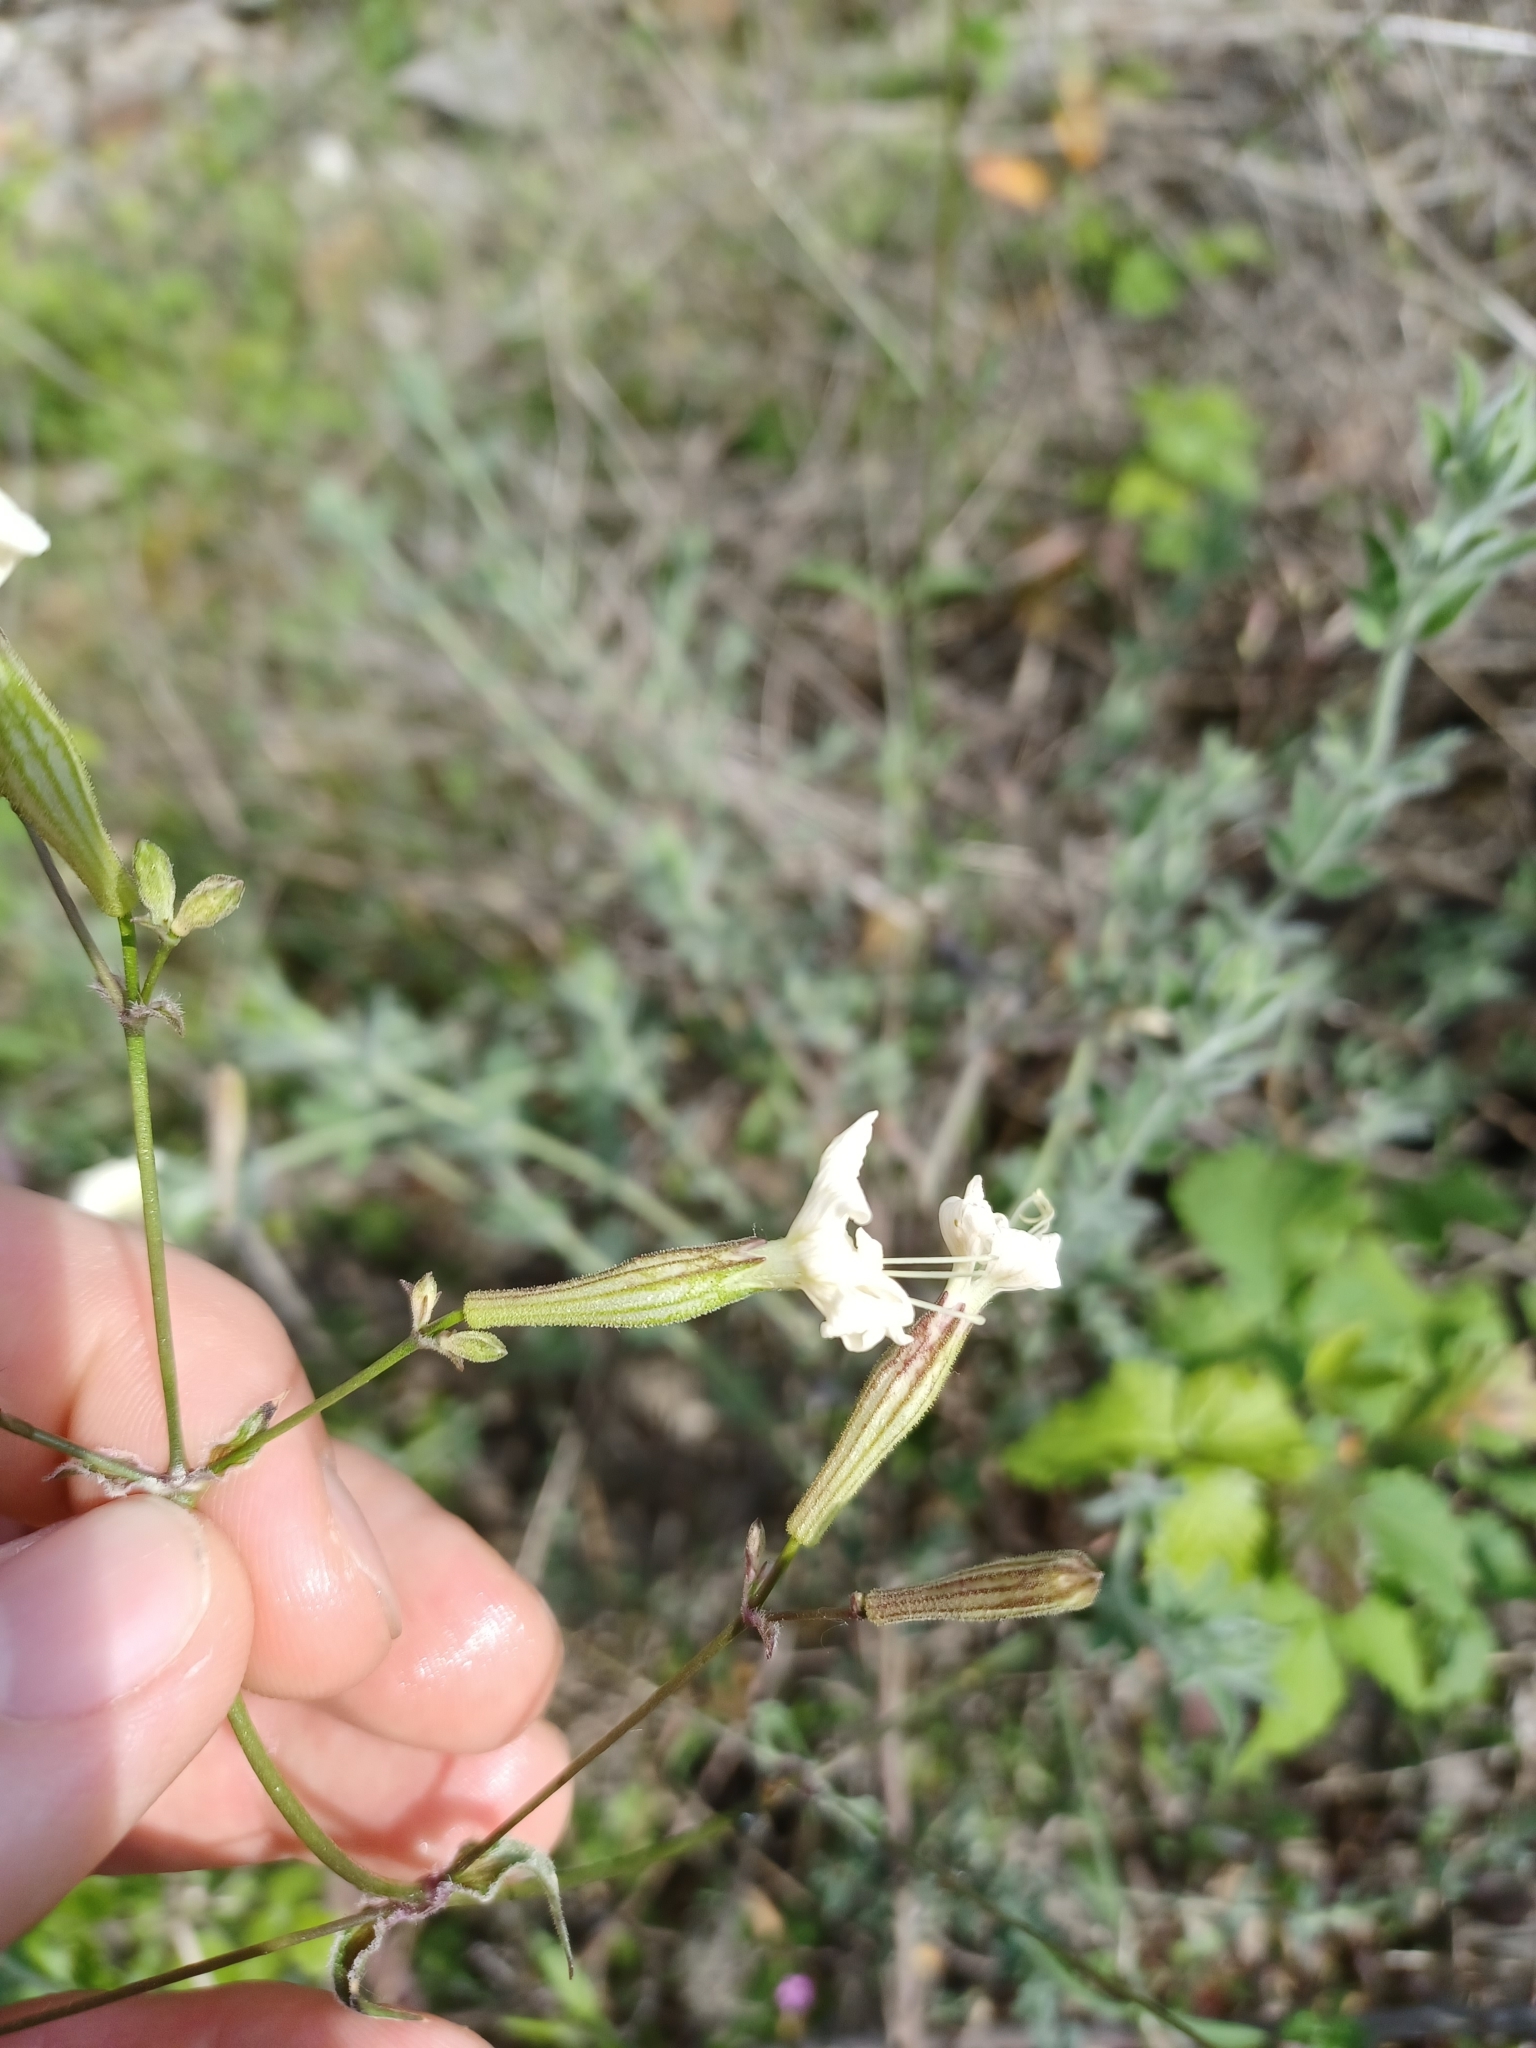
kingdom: Plantae
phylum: Tracheophyta
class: Magnoliopsida
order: Caryophyllales
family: Caryophyllaceae
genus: Silene
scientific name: Silene italica
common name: Italian catchfly
